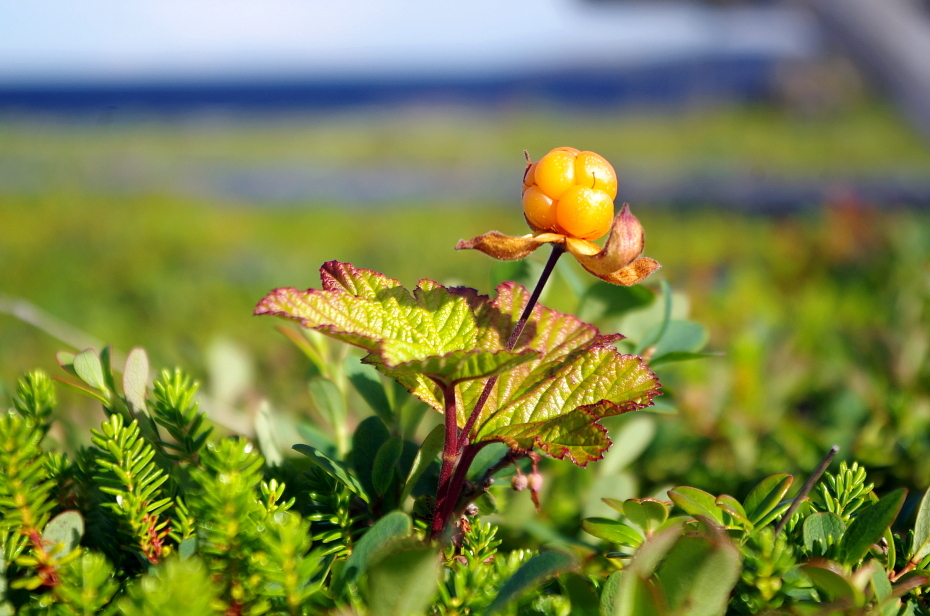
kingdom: Plantae
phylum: Tracheophyta
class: Magnoliopsida
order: Rosales
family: Rosaceae
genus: Rubus
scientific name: Rubus chamaemorus
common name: Cloudberry
